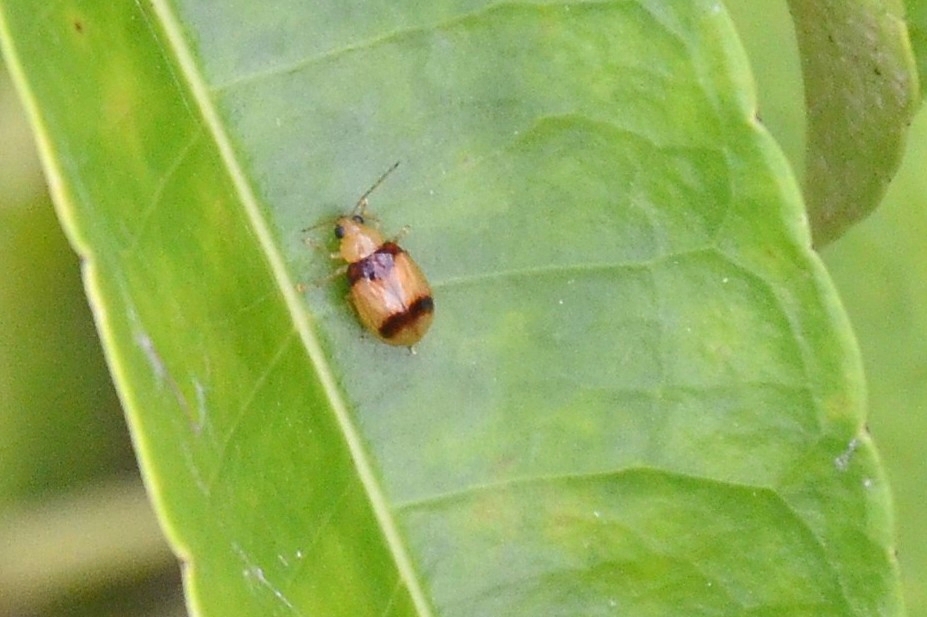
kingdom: Animalia
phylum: Arthropoda
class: Insecta
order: Coleoptera
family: Chrysomelidae
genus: Monolepta
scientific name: Monolepta
